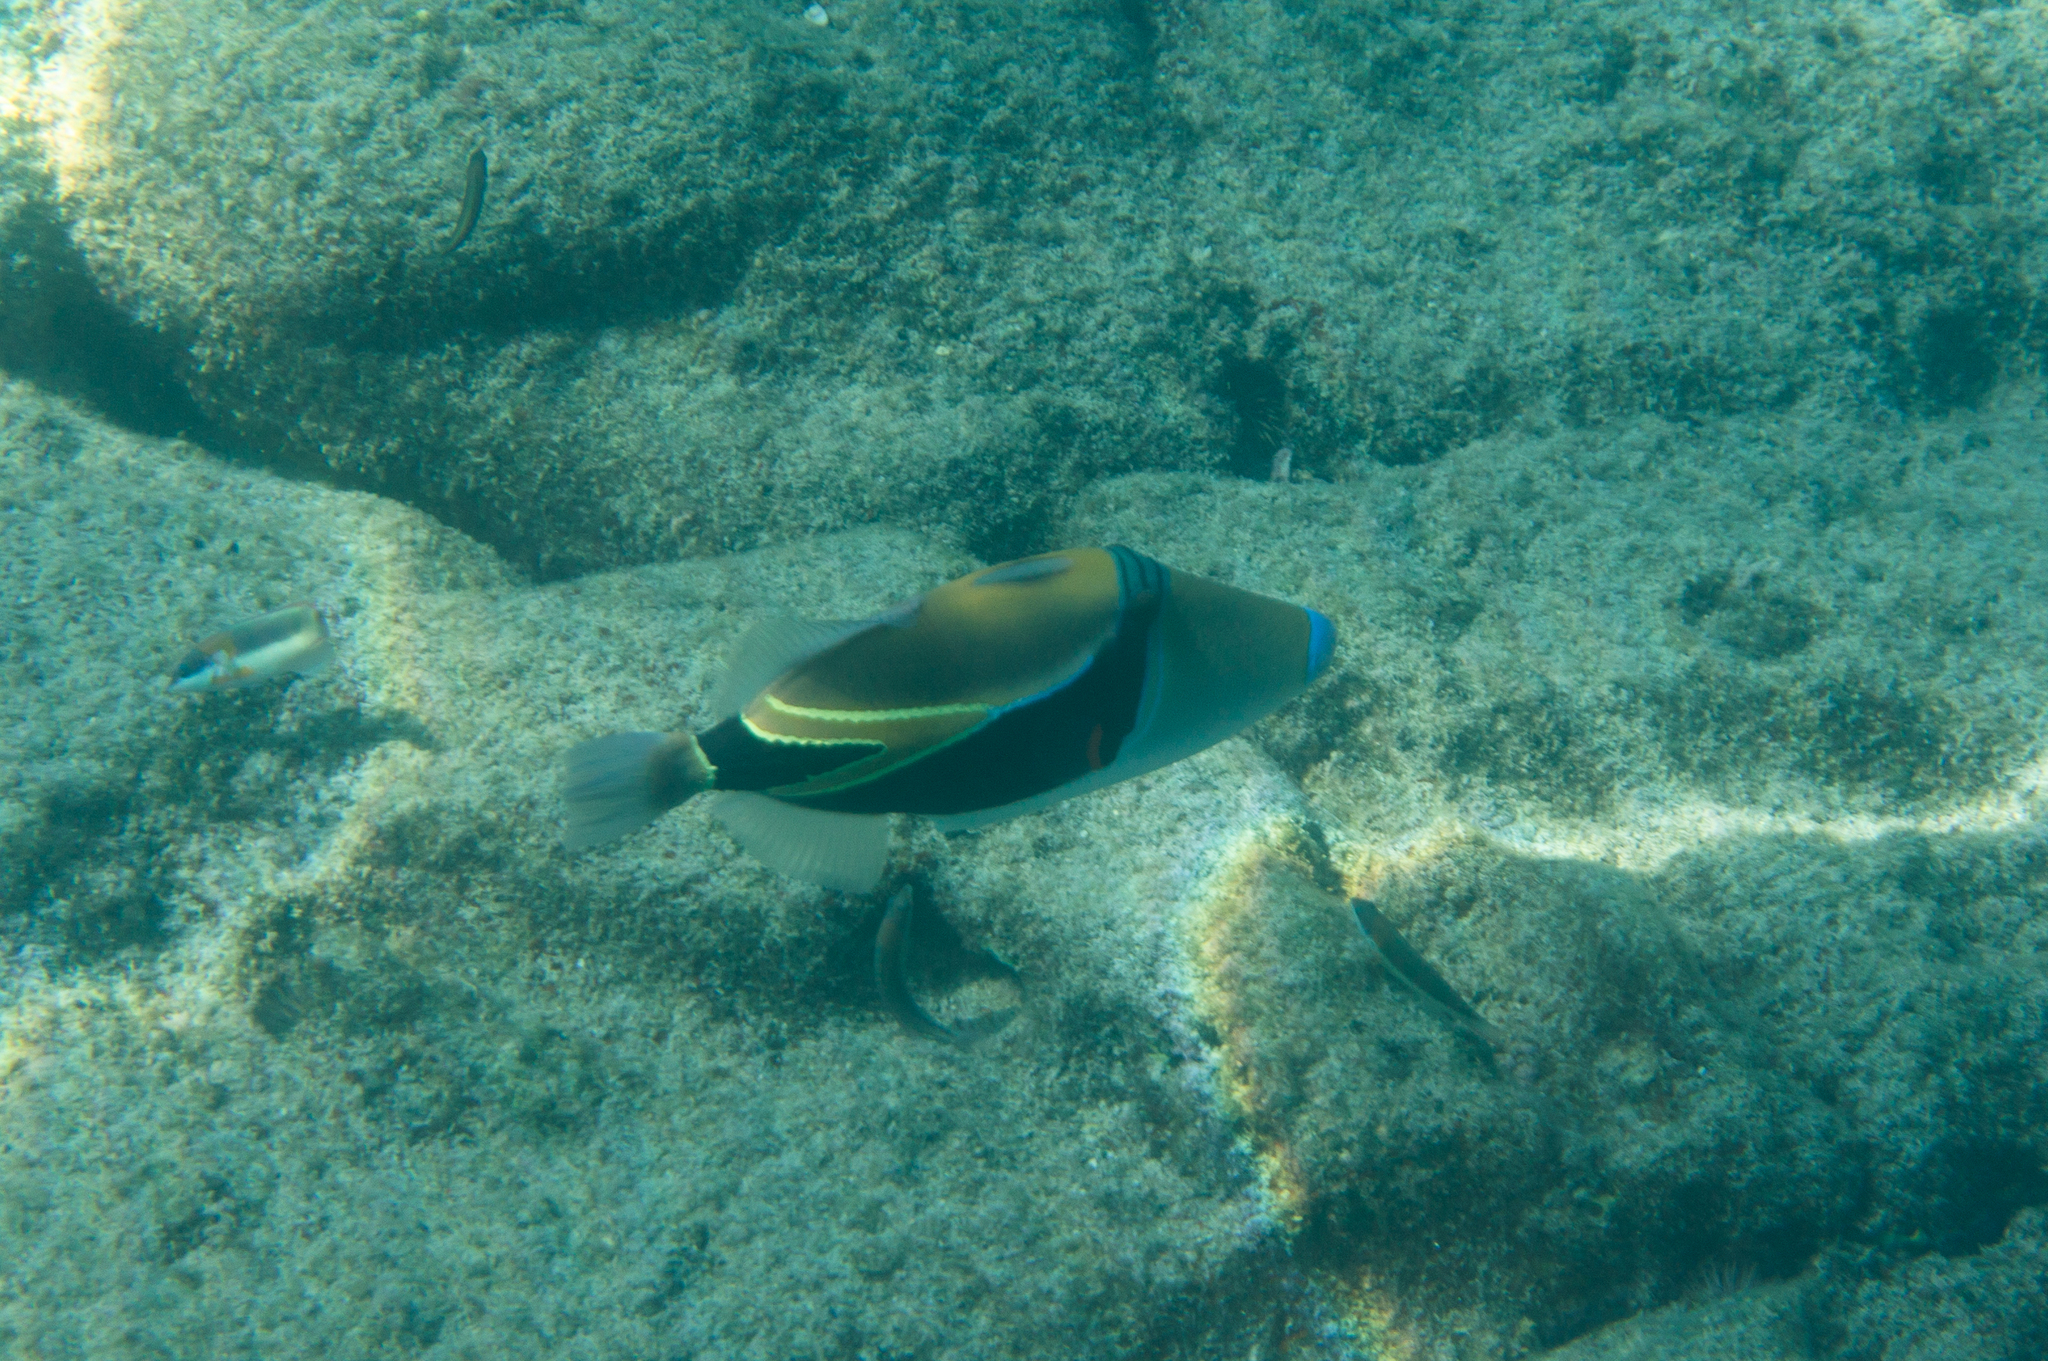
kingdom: Animalia
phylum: Chordata
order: Tetraodontiformes
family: Balistidae
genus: Rhinecanthus
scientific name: Rhinecanthus rectangulus
